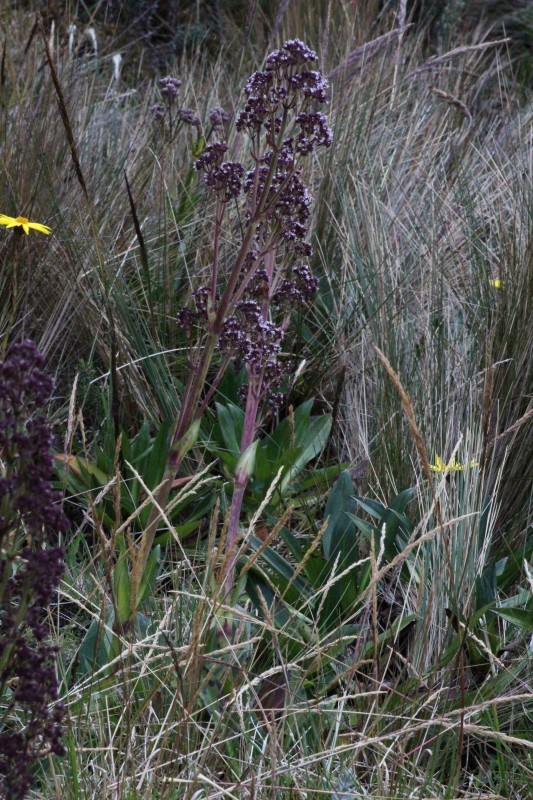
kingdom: Plantae
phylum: Tracheophyta
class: Magnoliopsida
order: Dipsacales
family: Caprifoliaceae
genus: Valeriana
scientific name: Valeriana pilosa
